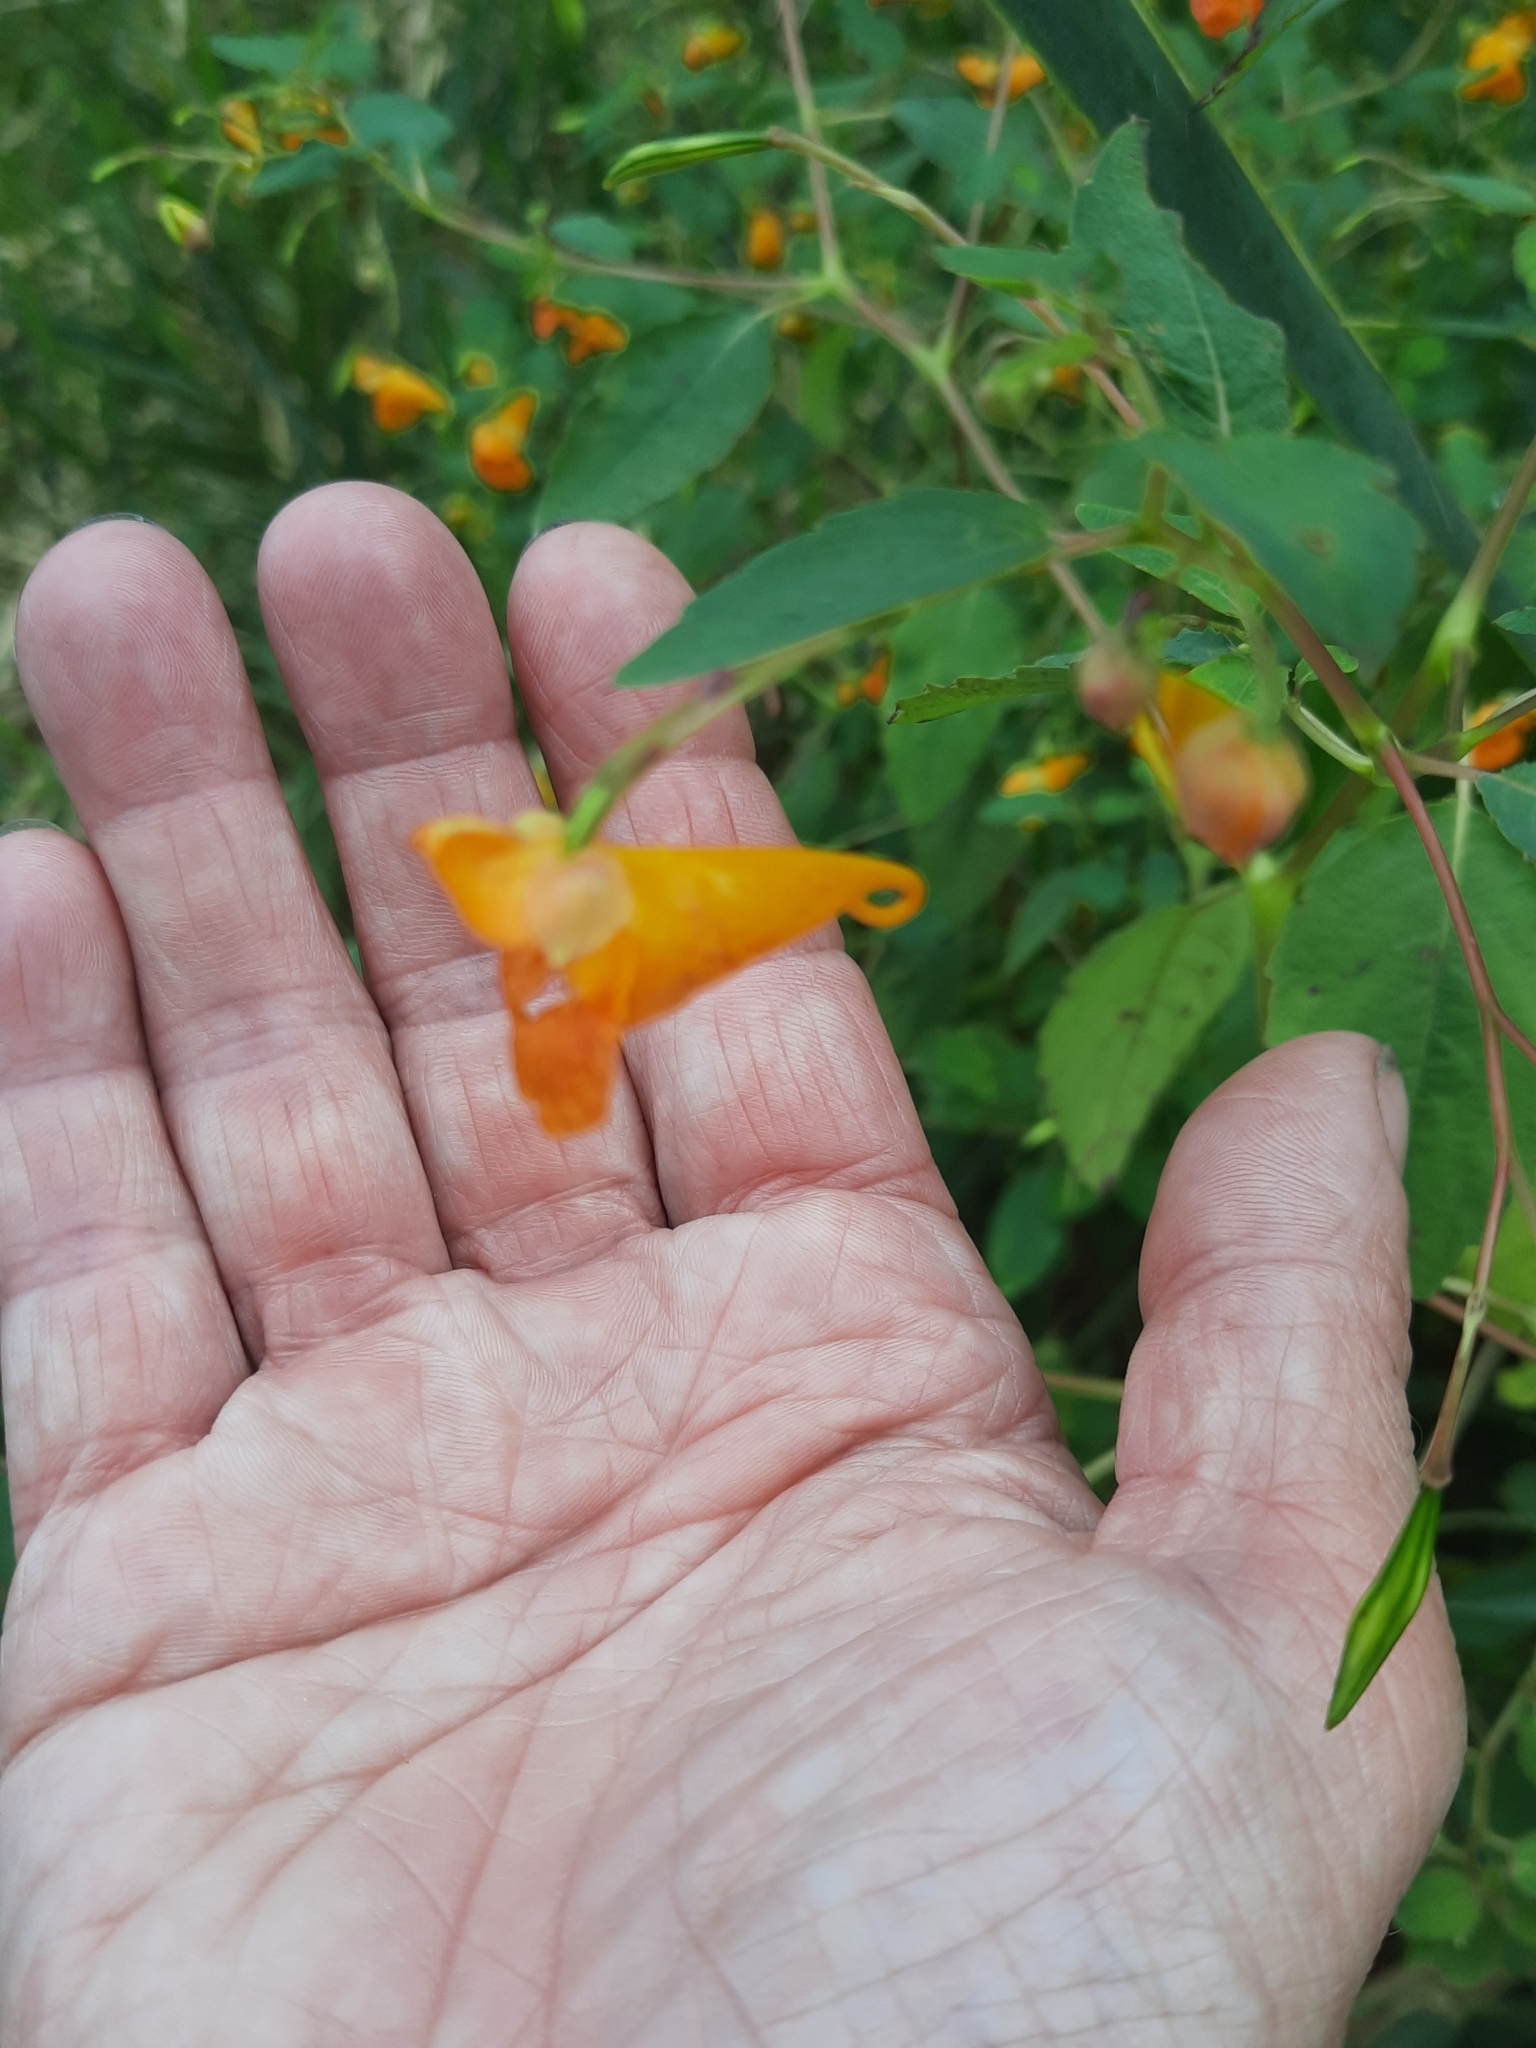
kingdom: Plantae
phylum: Tracheophyta
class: Magnoliopsida
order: Ericales
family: Balsaminaceae
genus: Impatiens
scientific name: Impatiens capensis
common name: Orange balsam
